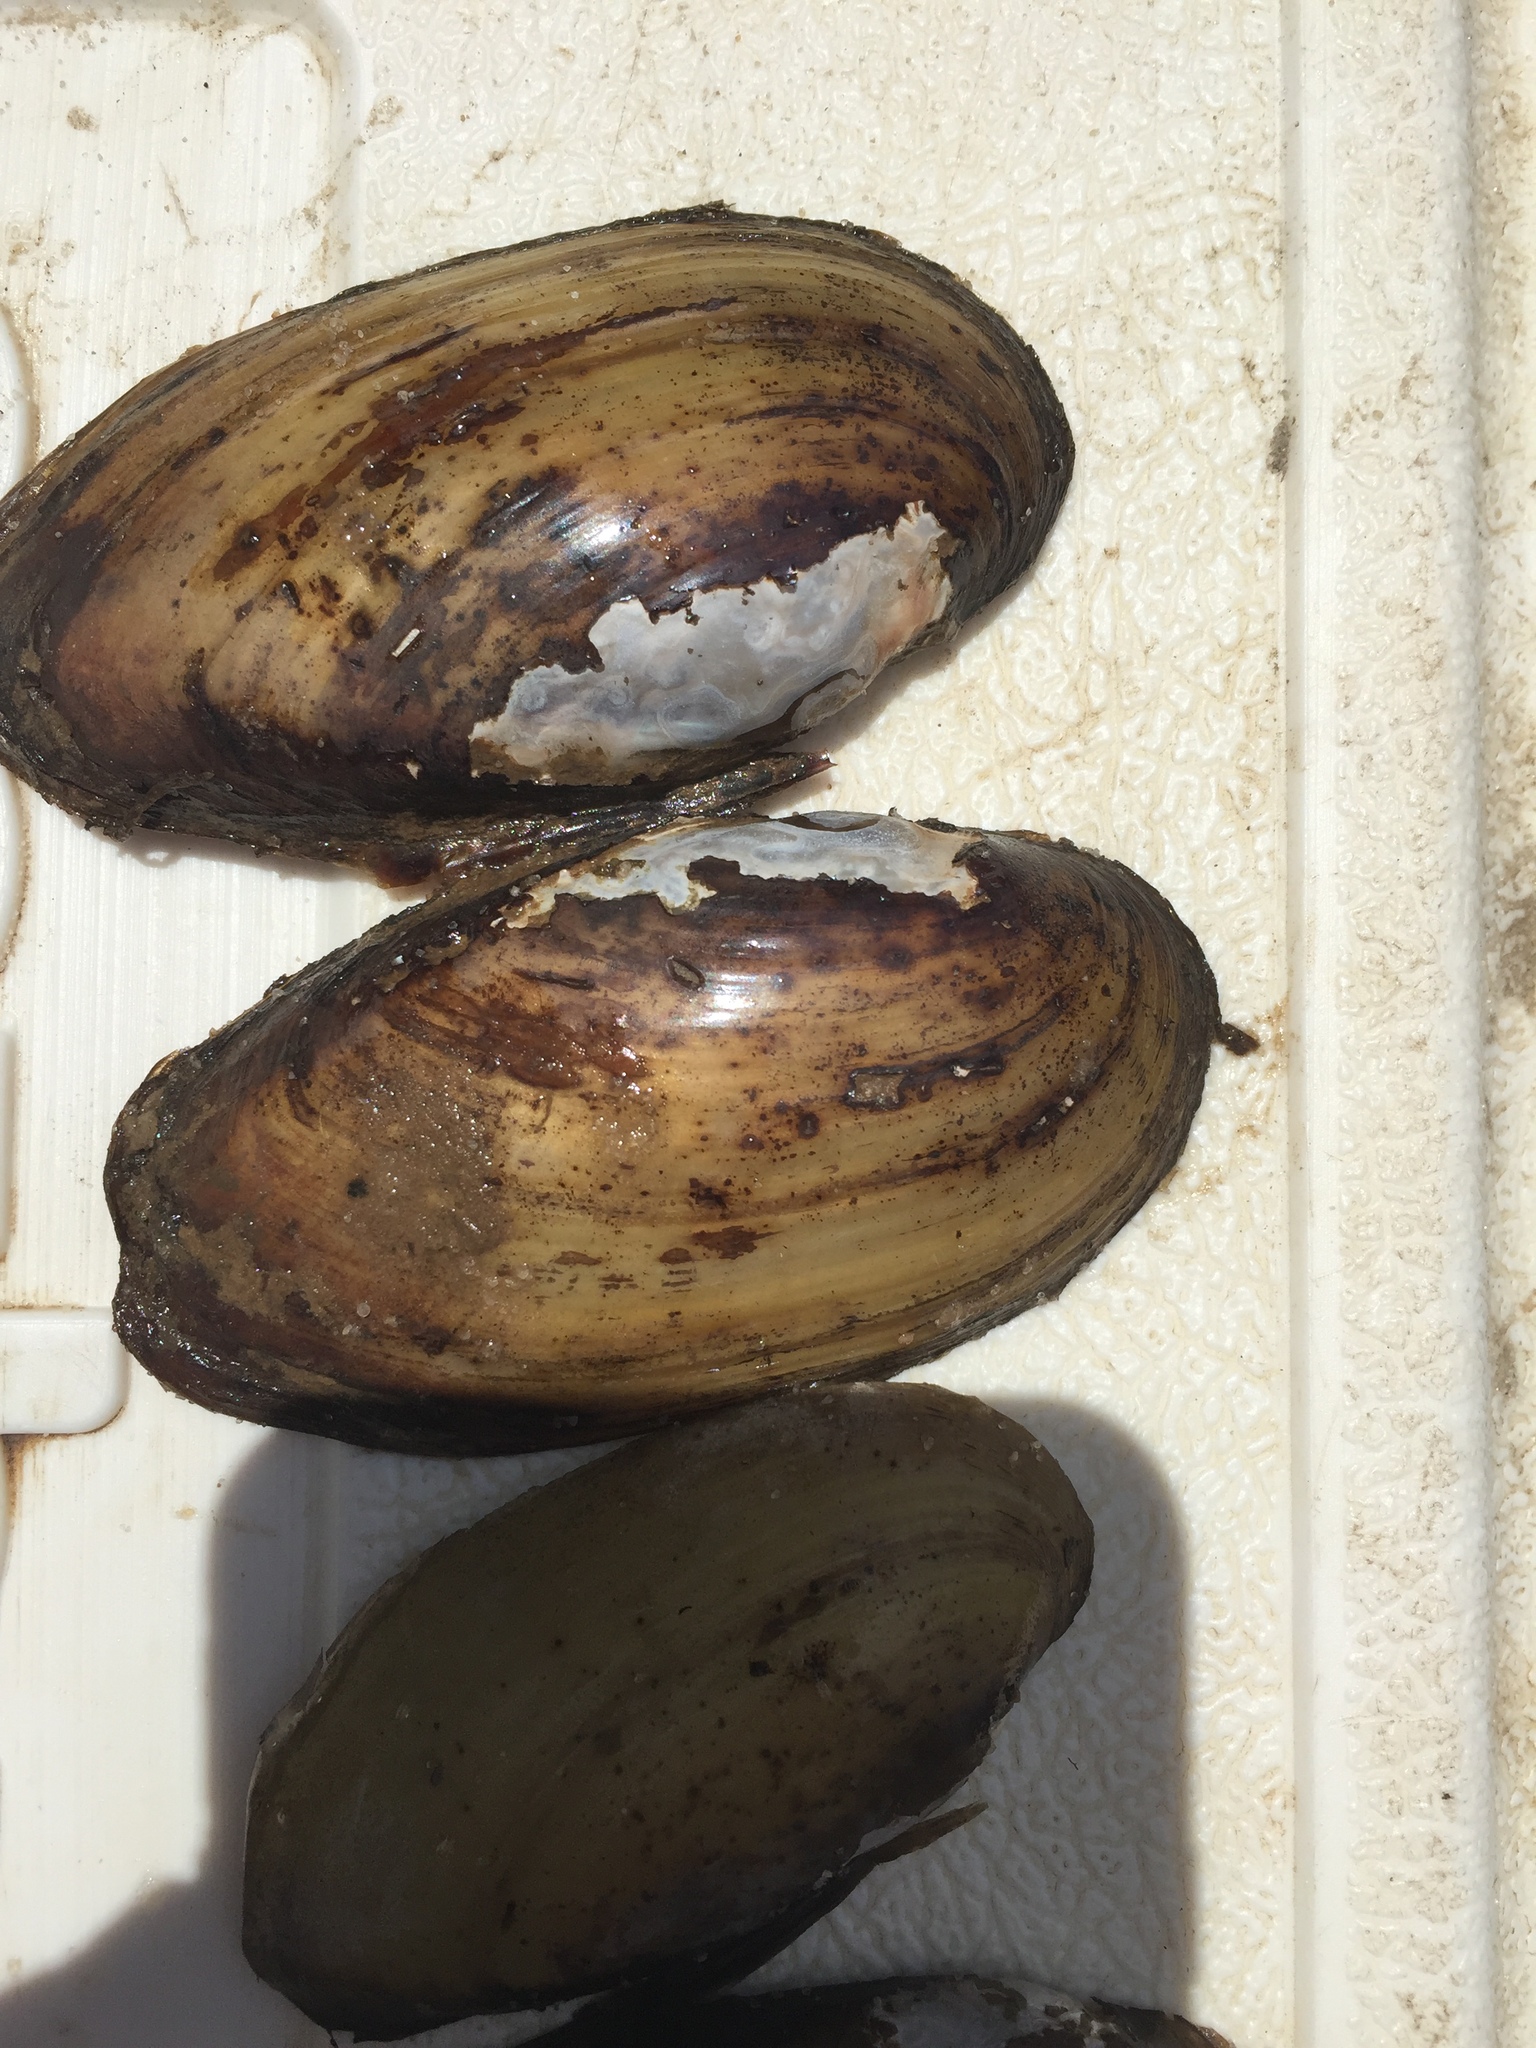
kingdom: Animalia
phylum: Mollusca
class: Bivalvia
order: Unionida
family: Unionidae
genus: Lampsilis
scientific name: Lampsilis teres
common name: Yellow sandshell
